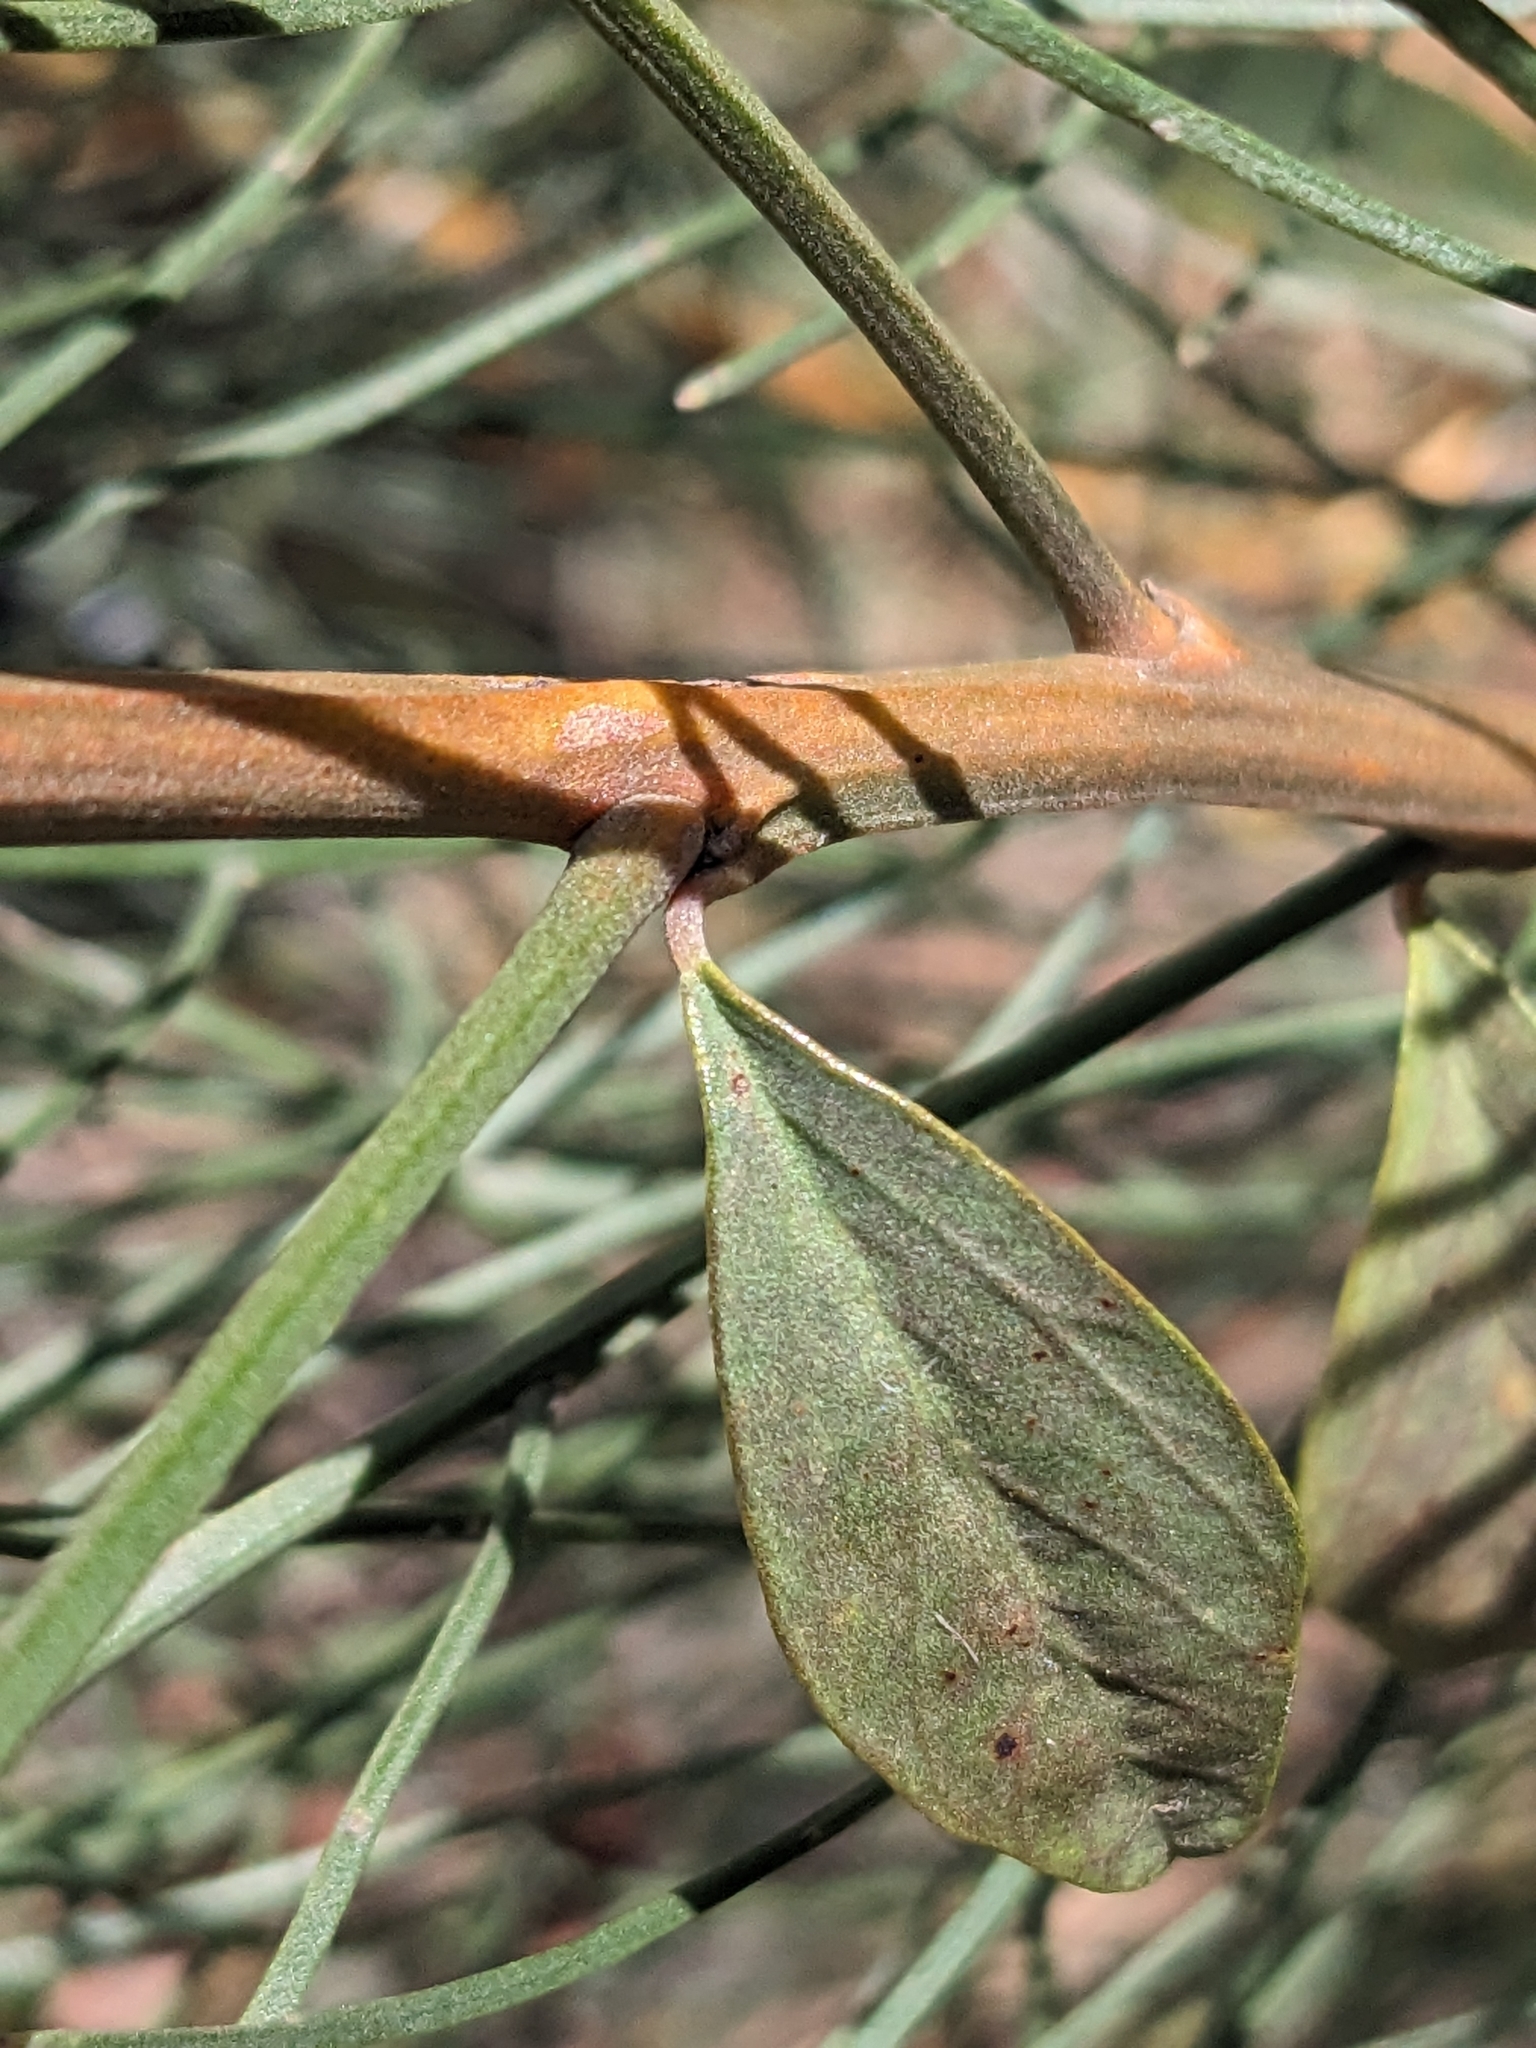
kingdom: Plantae
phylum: Tracheophyta
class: Magnoliopsida
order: Fabales
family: Fabaceae
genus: Jacksonia
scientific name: Jacksonia scoparia
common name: Dogwood
